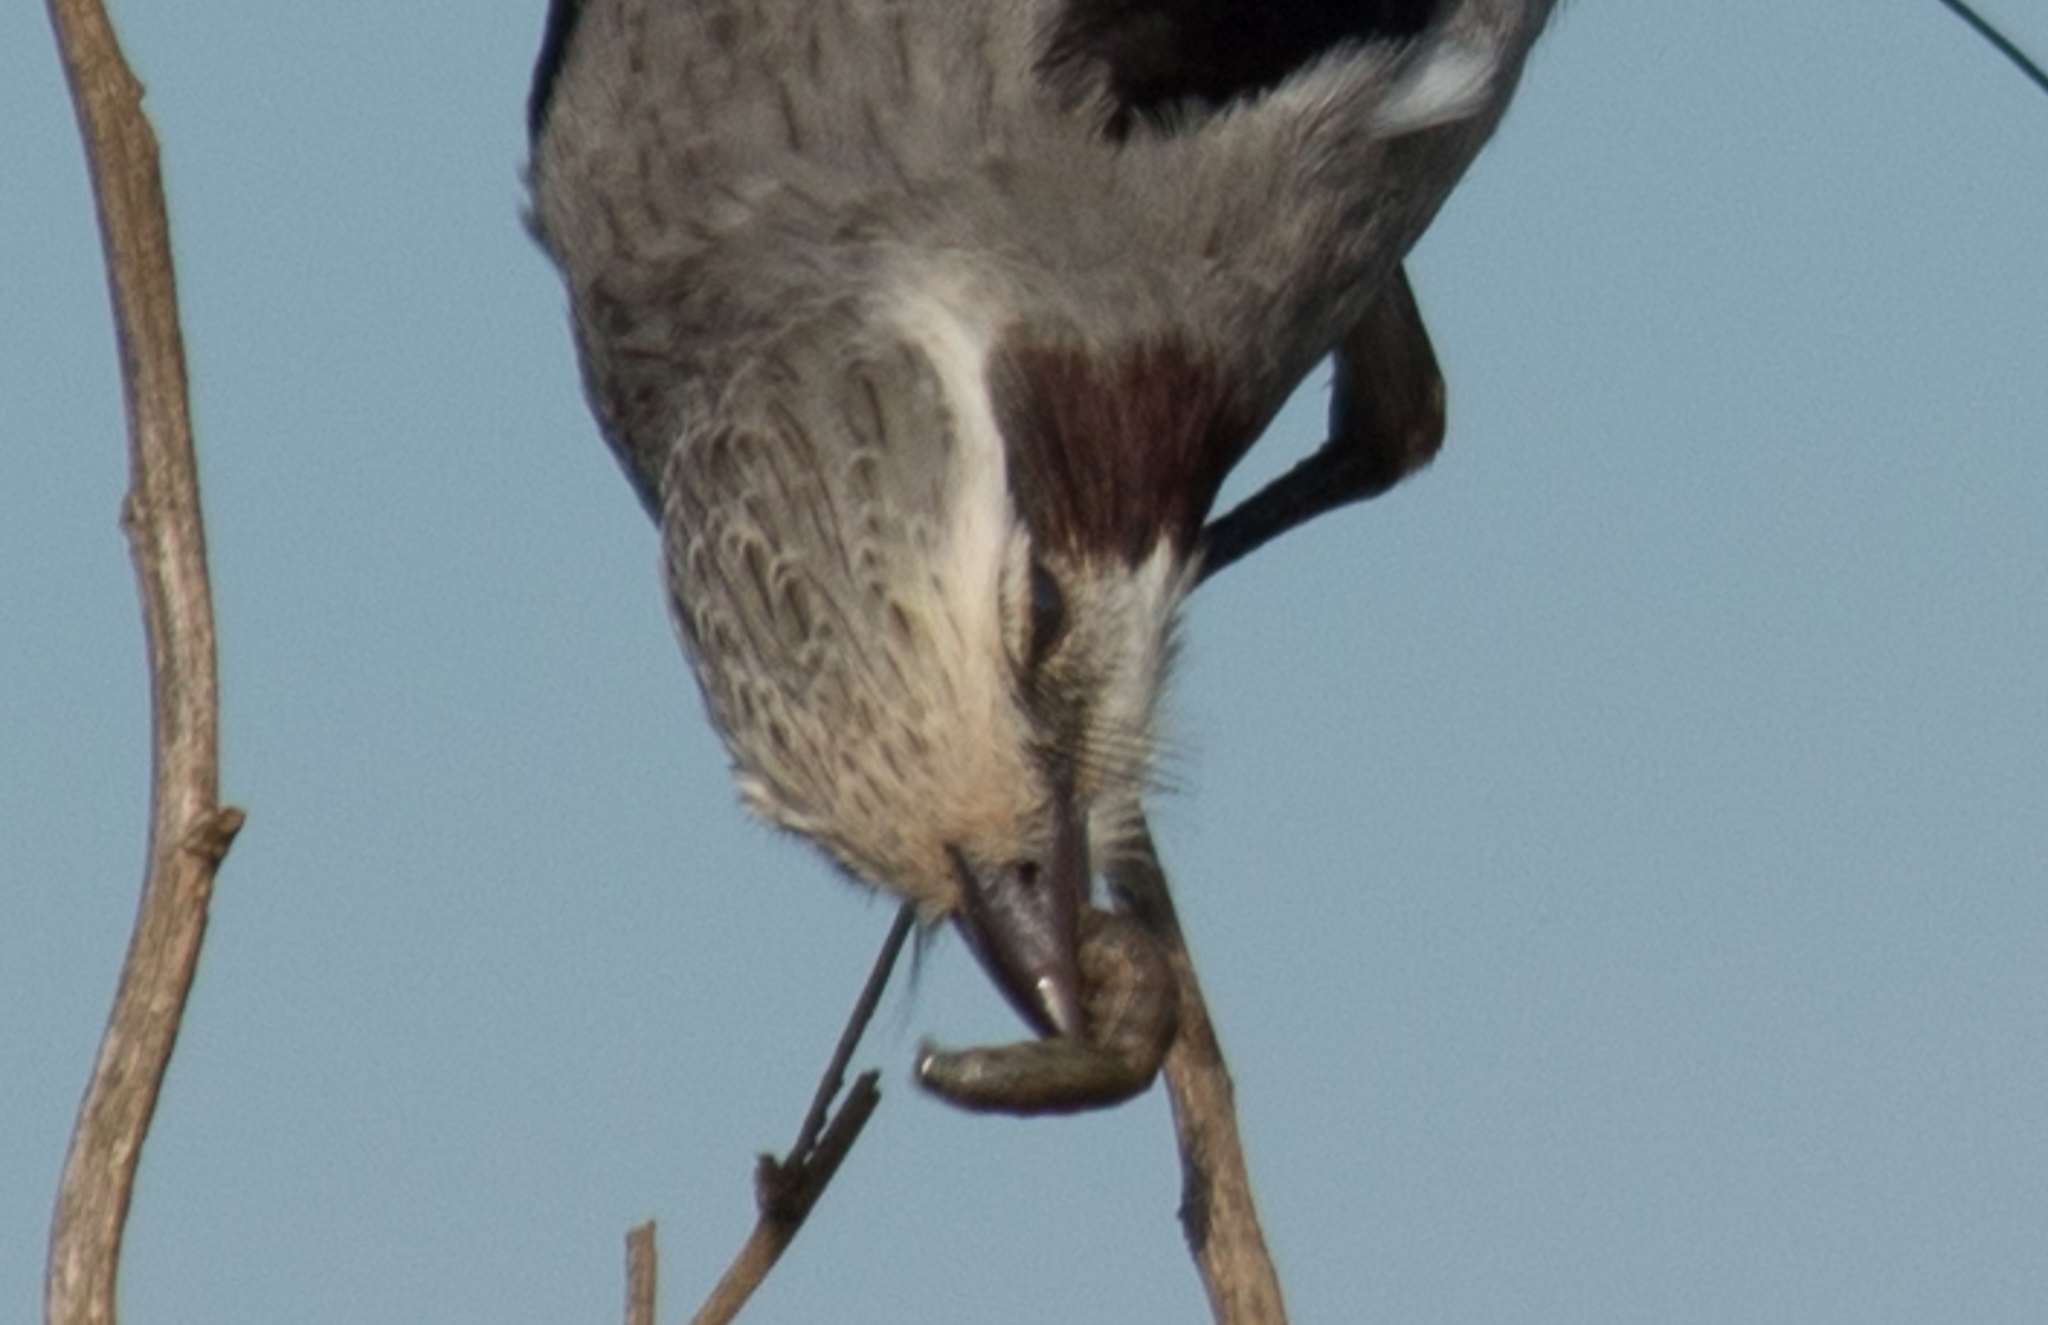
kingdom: Animalia
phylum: Chordata
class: Aves
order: Passeriformes
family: Tyrannidae
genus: Gubernetes
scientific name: Gubernetes yetapa
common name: Streamer-tailed tyrant
